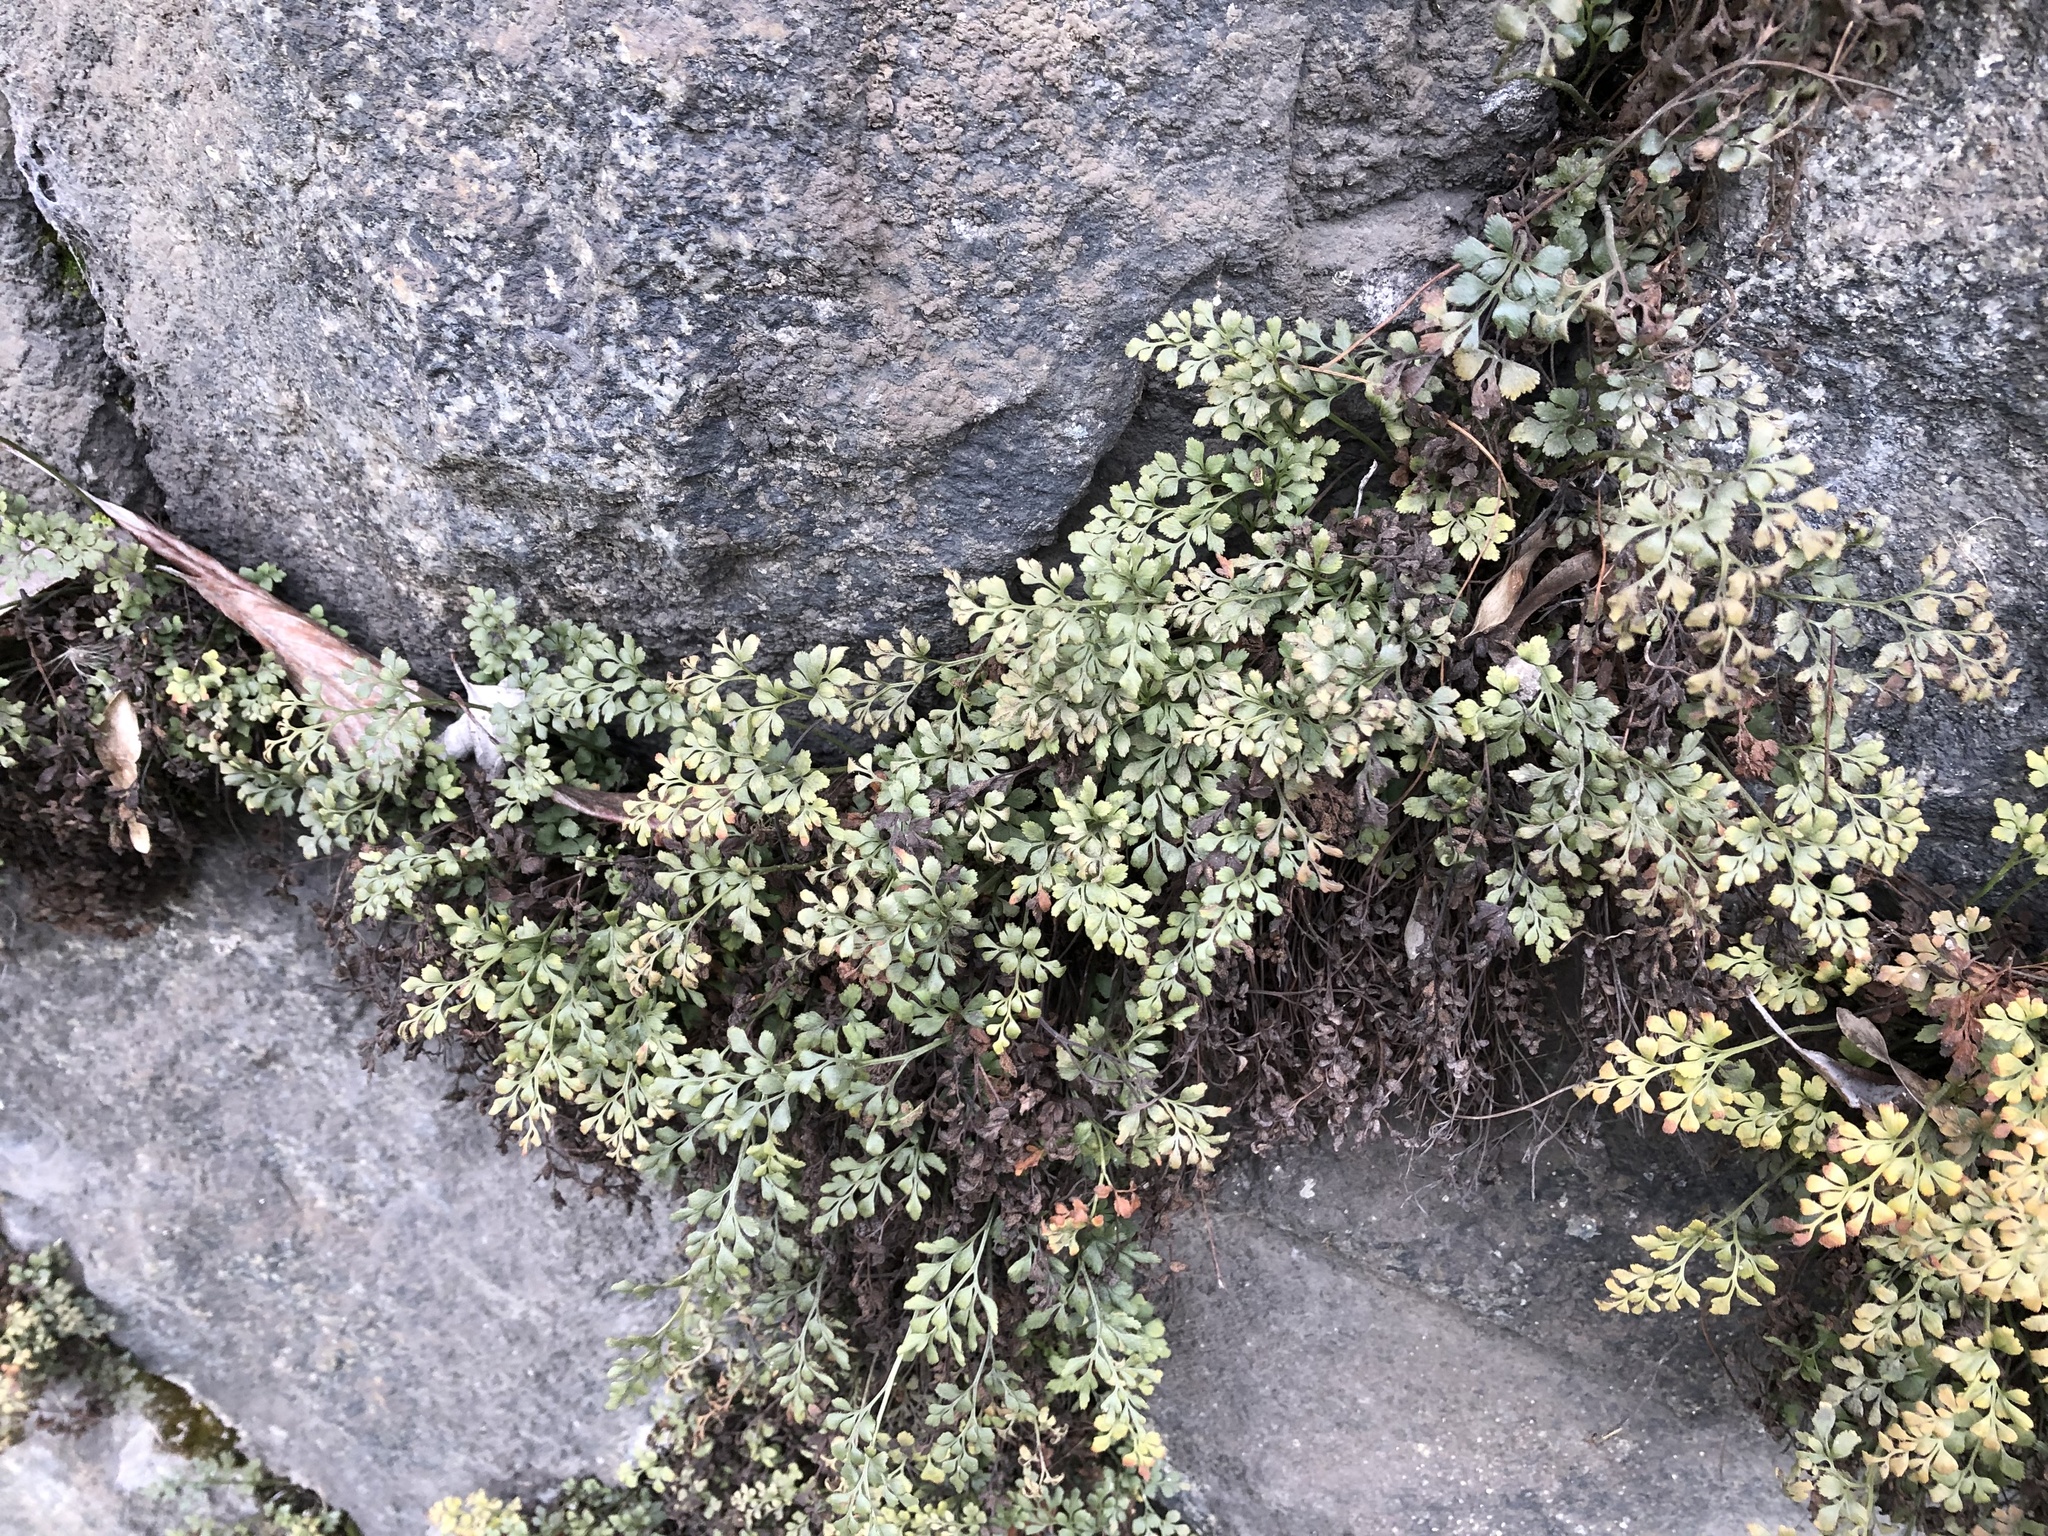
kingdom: Plantae
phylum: Tracheophyta
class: Polypodiopsida
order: Polypodiales
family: Aspleniaceae
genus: Asplenium
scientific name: Asplenium ruta-muraria
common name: Wall-rue
